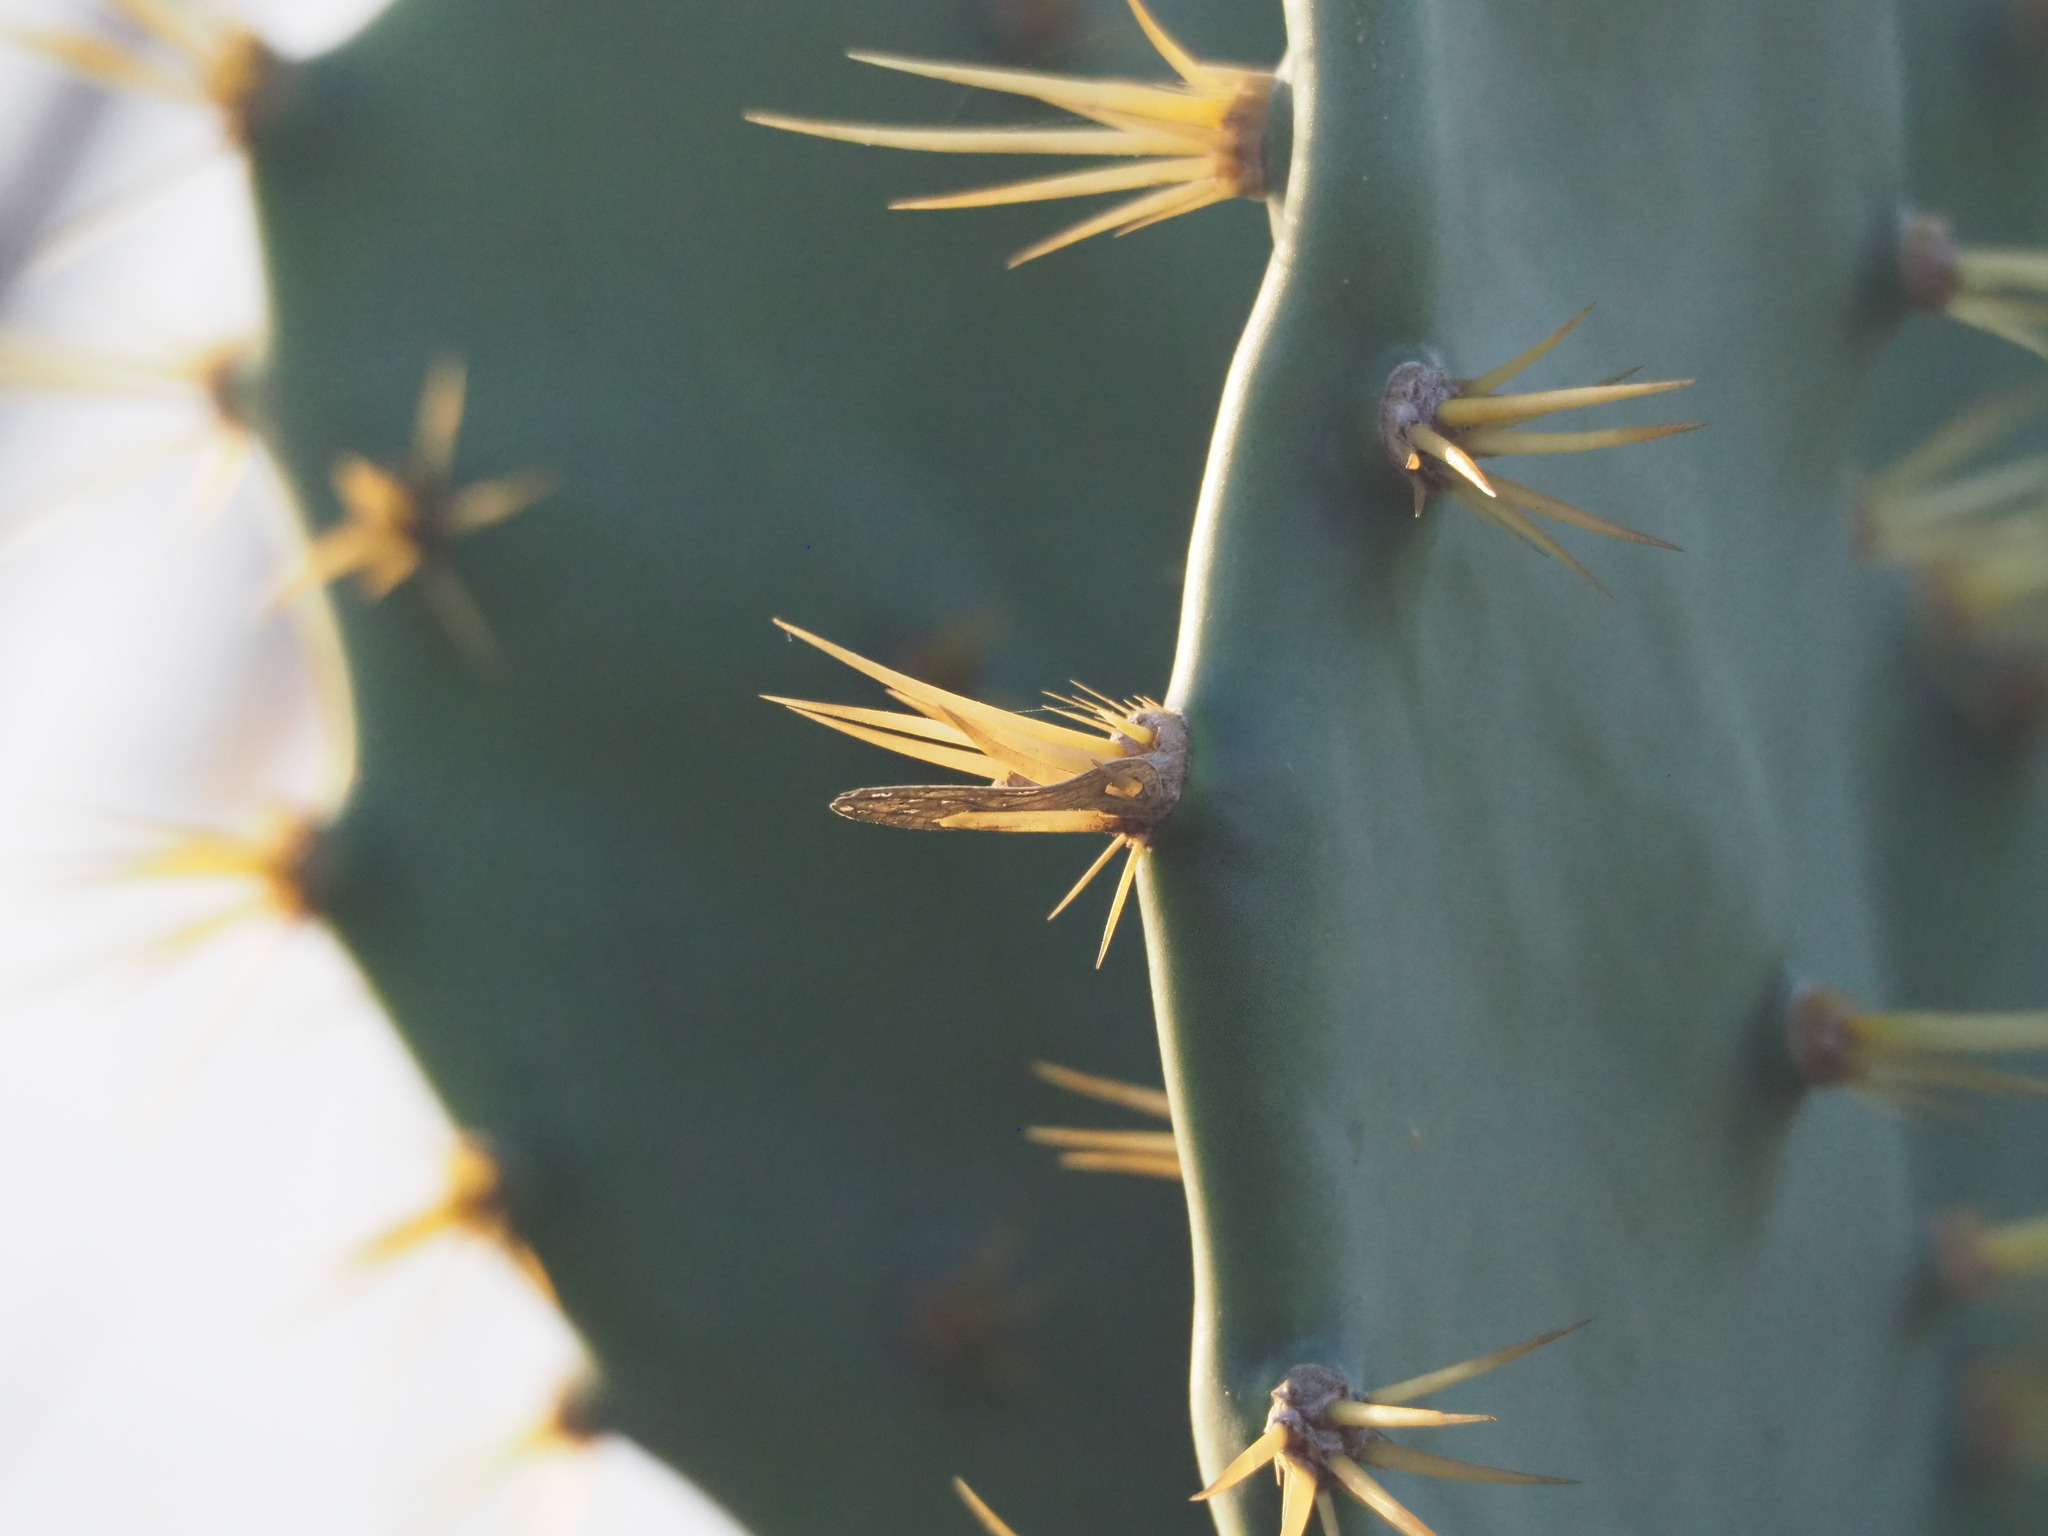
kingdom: Plantae
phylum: Tracheophyta
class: Magnoliopsida
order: Caryophyllales
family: Cactaceae
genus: Opuntia
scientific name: Opuntia dillenii
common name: Sour prickle
